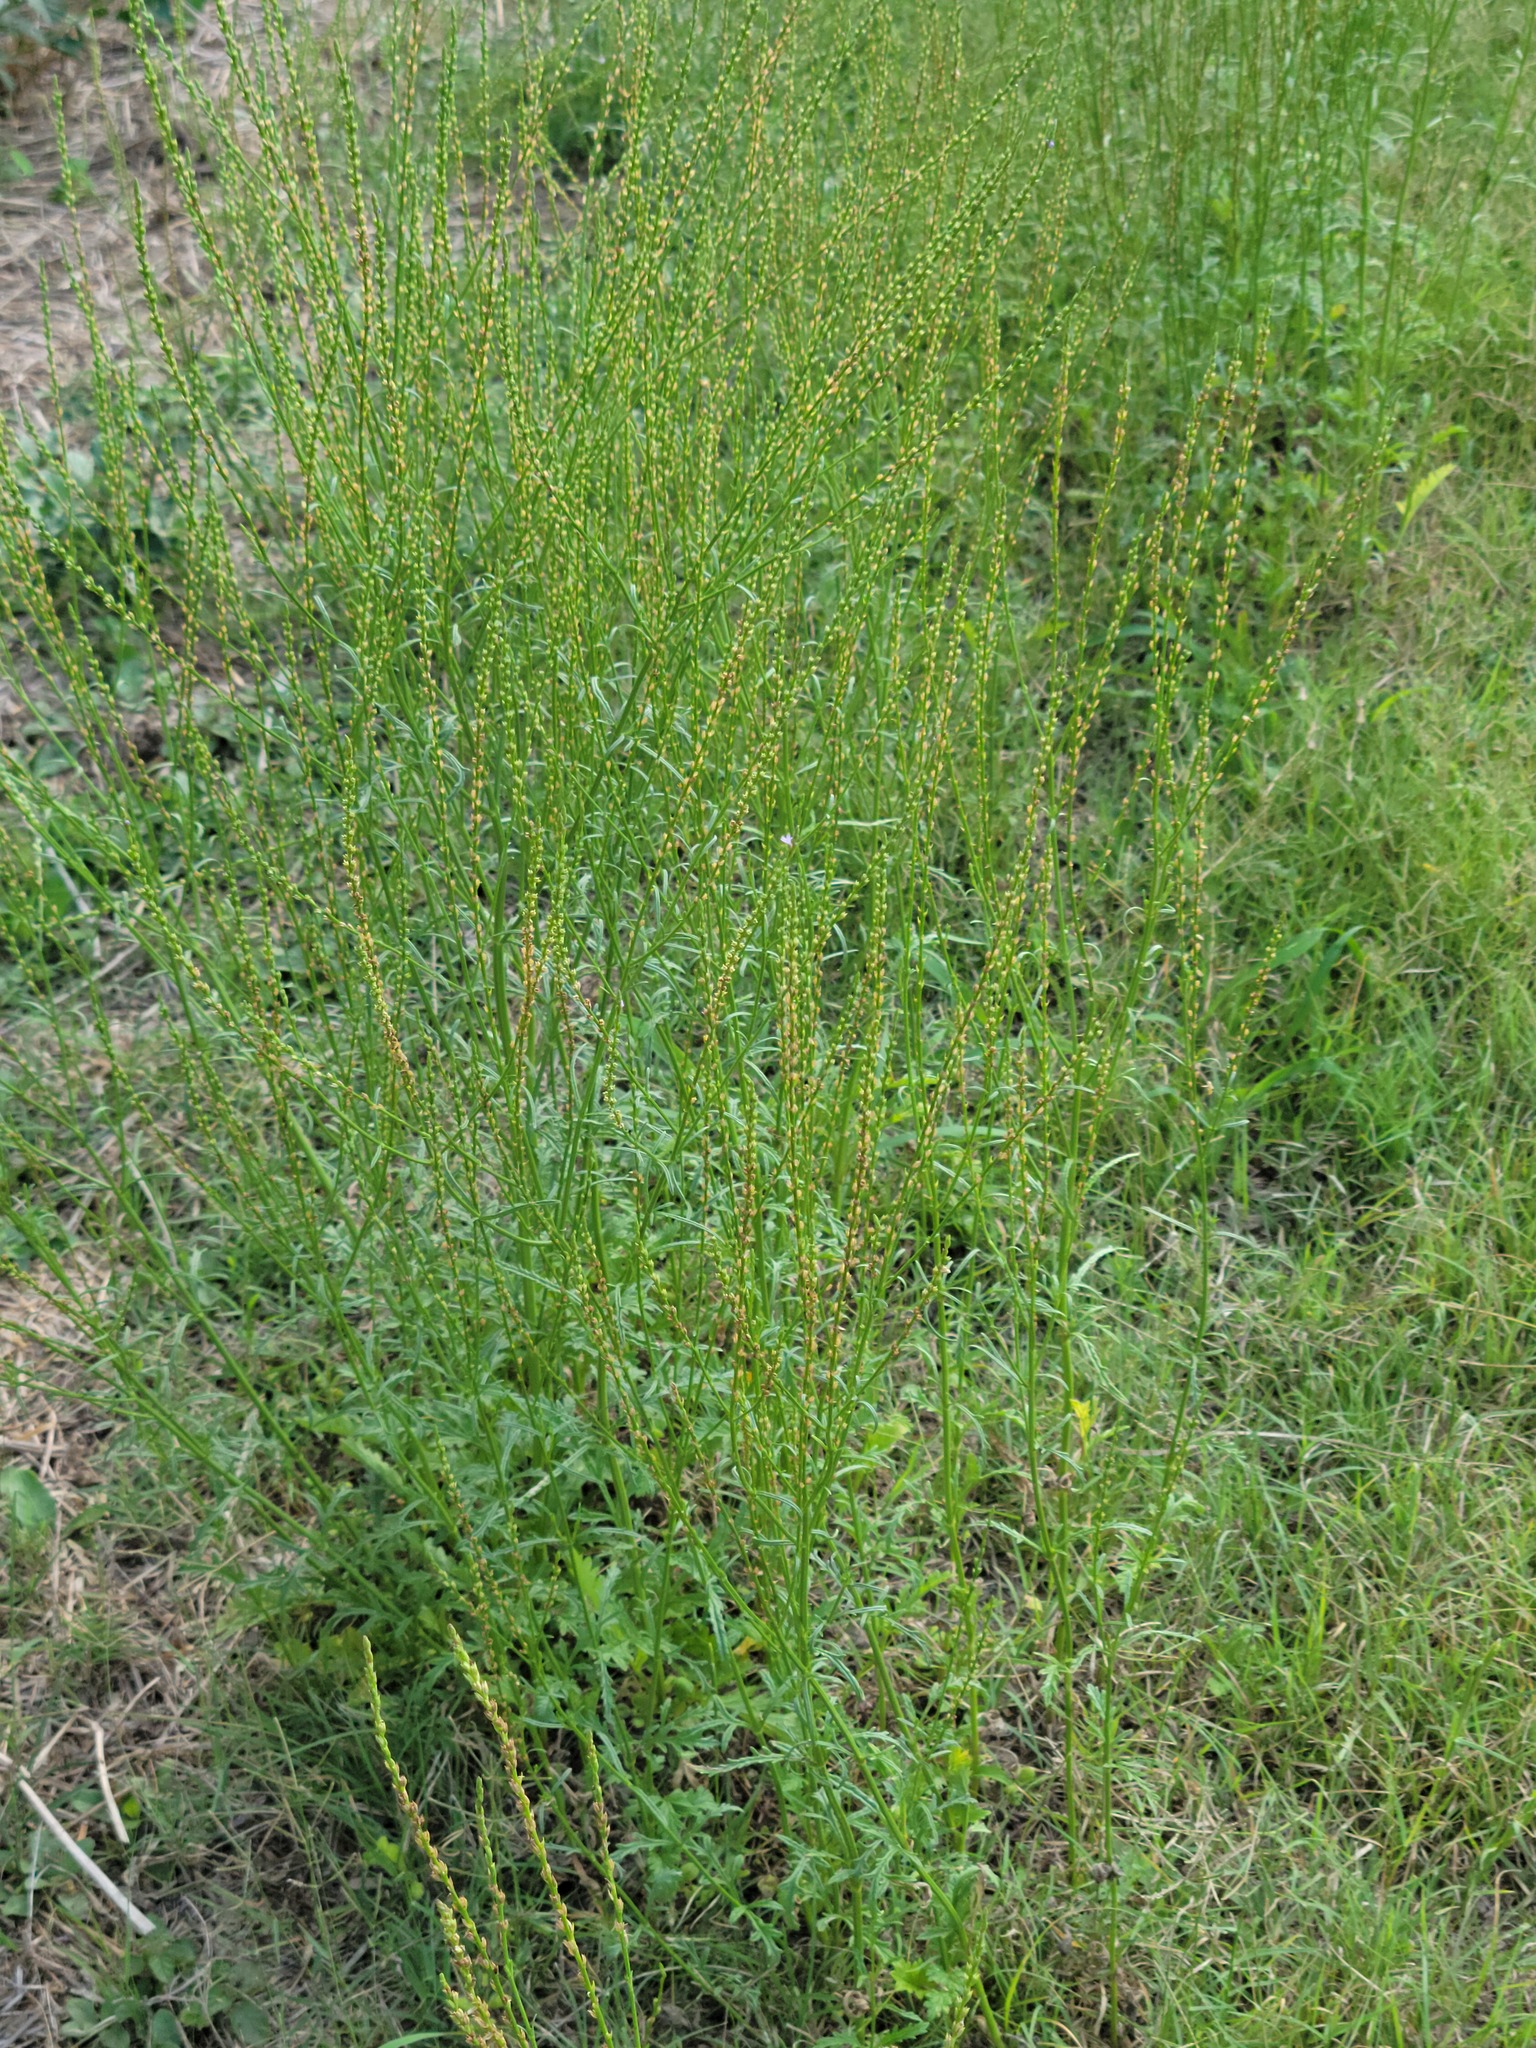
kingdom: Plantae
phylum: Tracheophyta
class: Magnoliopsida
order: Lamiales
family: Verbenaceae
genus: Verbena
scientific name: Verbena halei
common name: Texas vervain
